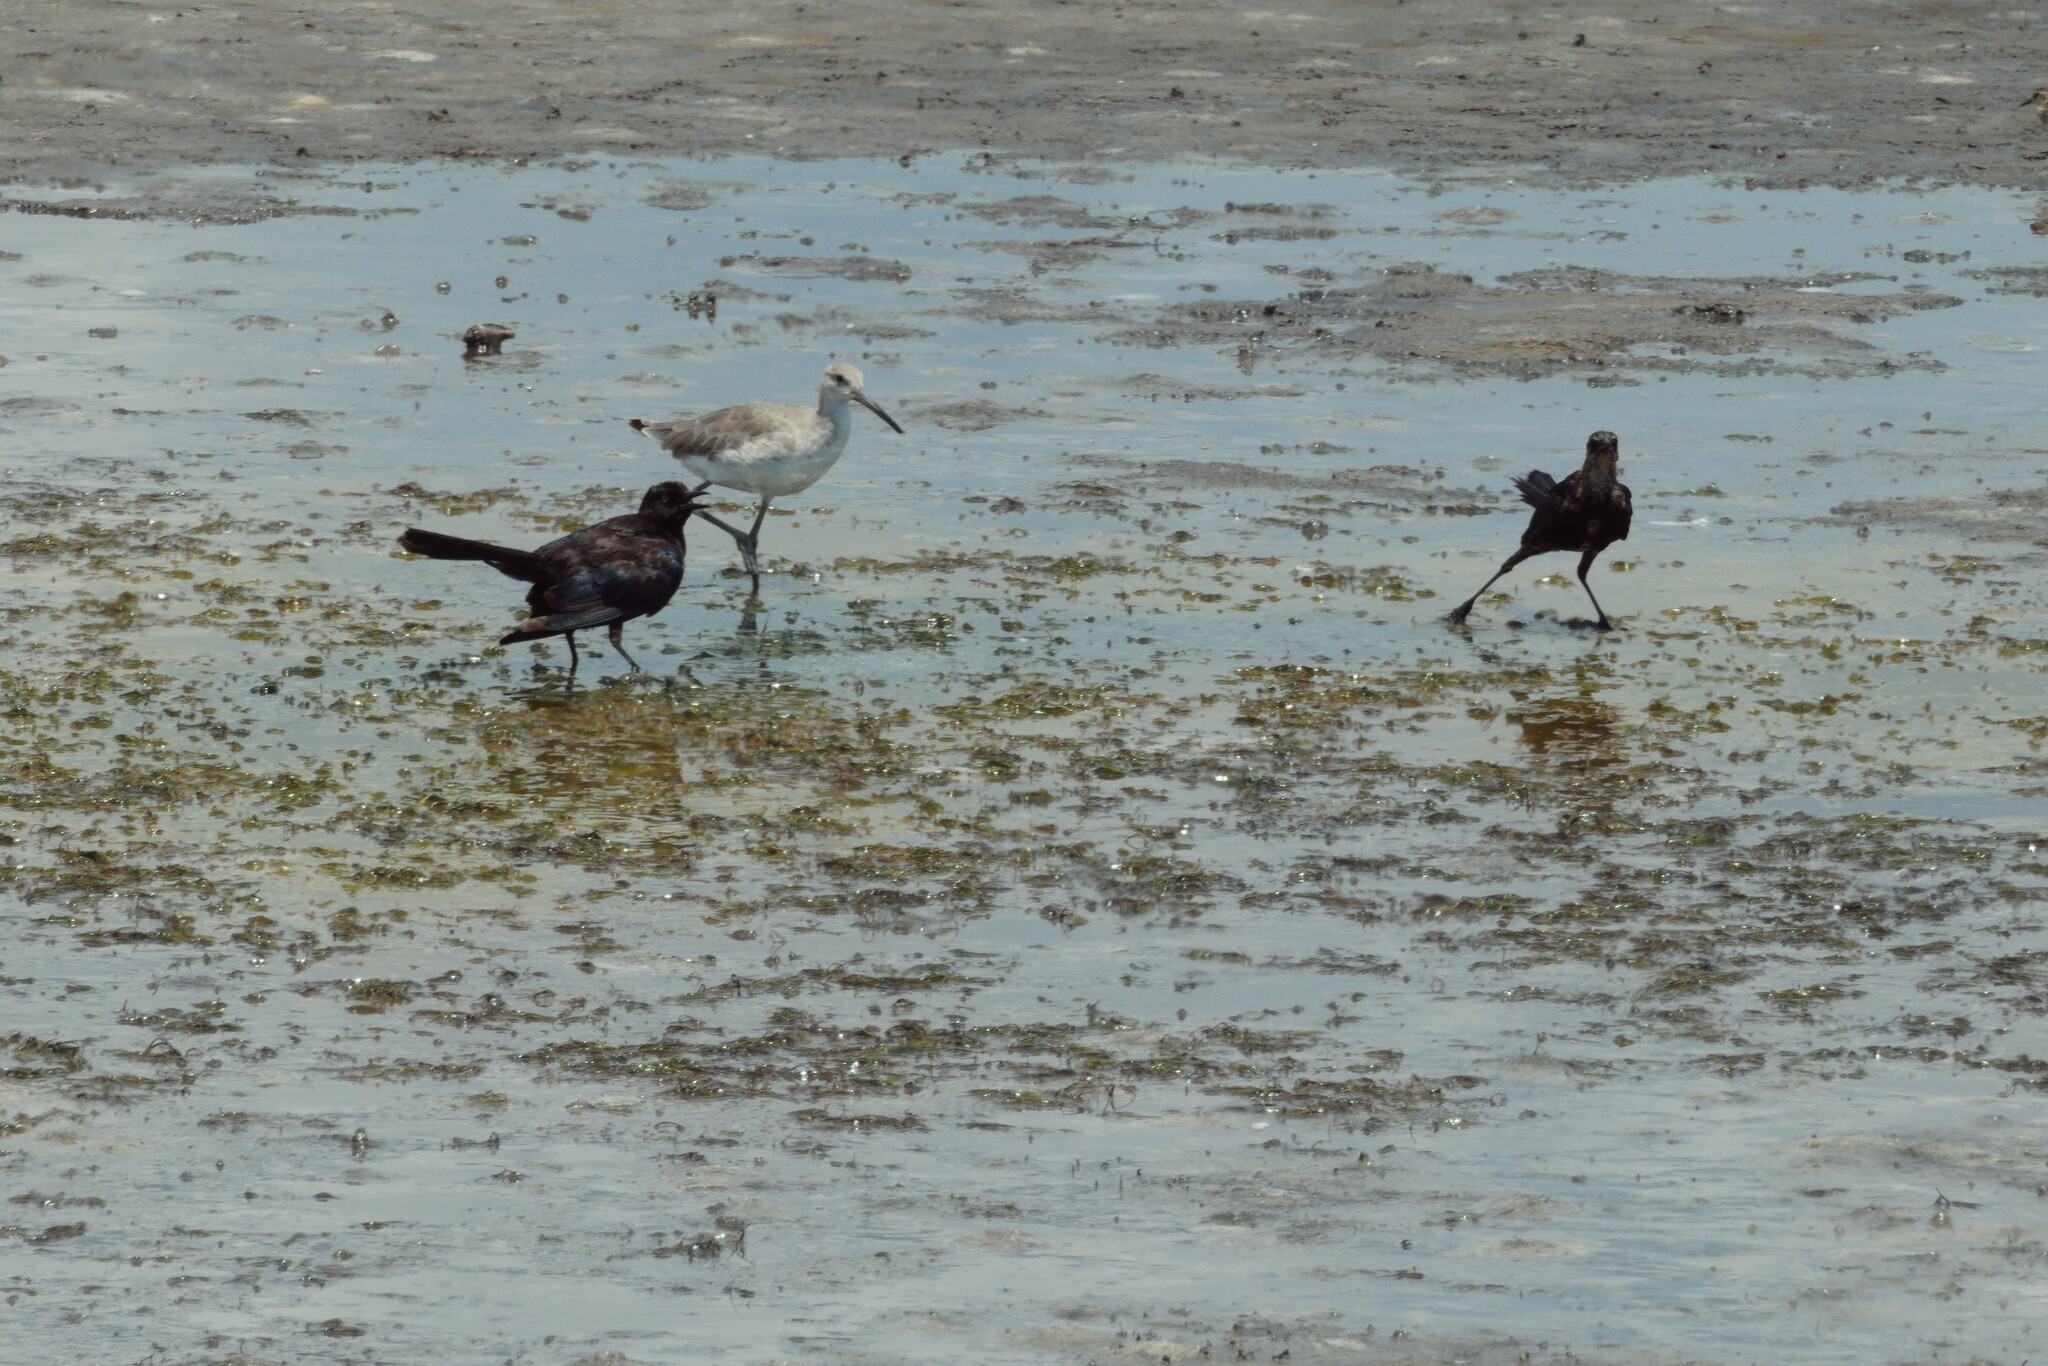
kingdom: Animalia
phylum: Chordata
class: Aves
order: Charadriiformes
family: Scolopacidae
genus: Tringa
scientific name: Tringa semipalmata
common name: Willet
